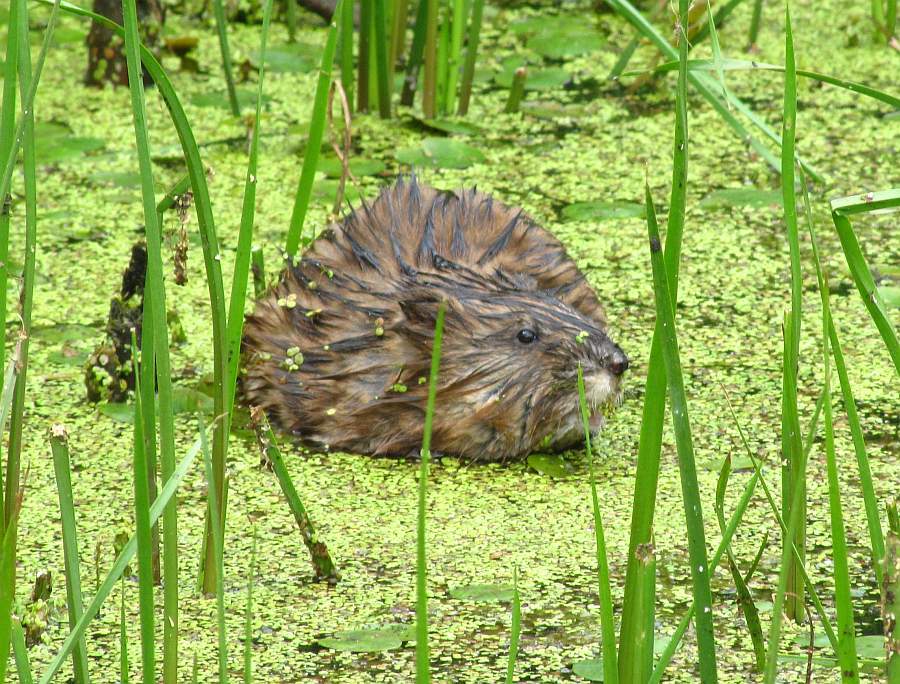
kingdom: Animalia
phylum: Chordata
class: Mammalia
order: Rodentia
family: Cricetidae
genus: Ondatra
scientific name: Ondatra zibethicus
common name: Muskrat
